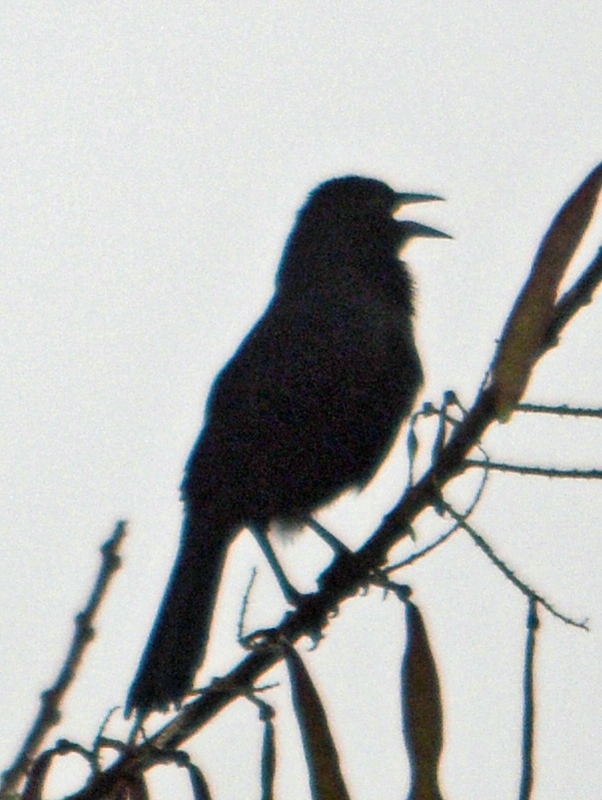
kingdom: Animalia
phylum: Chordata
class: Aves
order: Passeriformes
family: Icteridae
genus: Dives
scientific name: Dives dives
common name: Melodious blackbird
